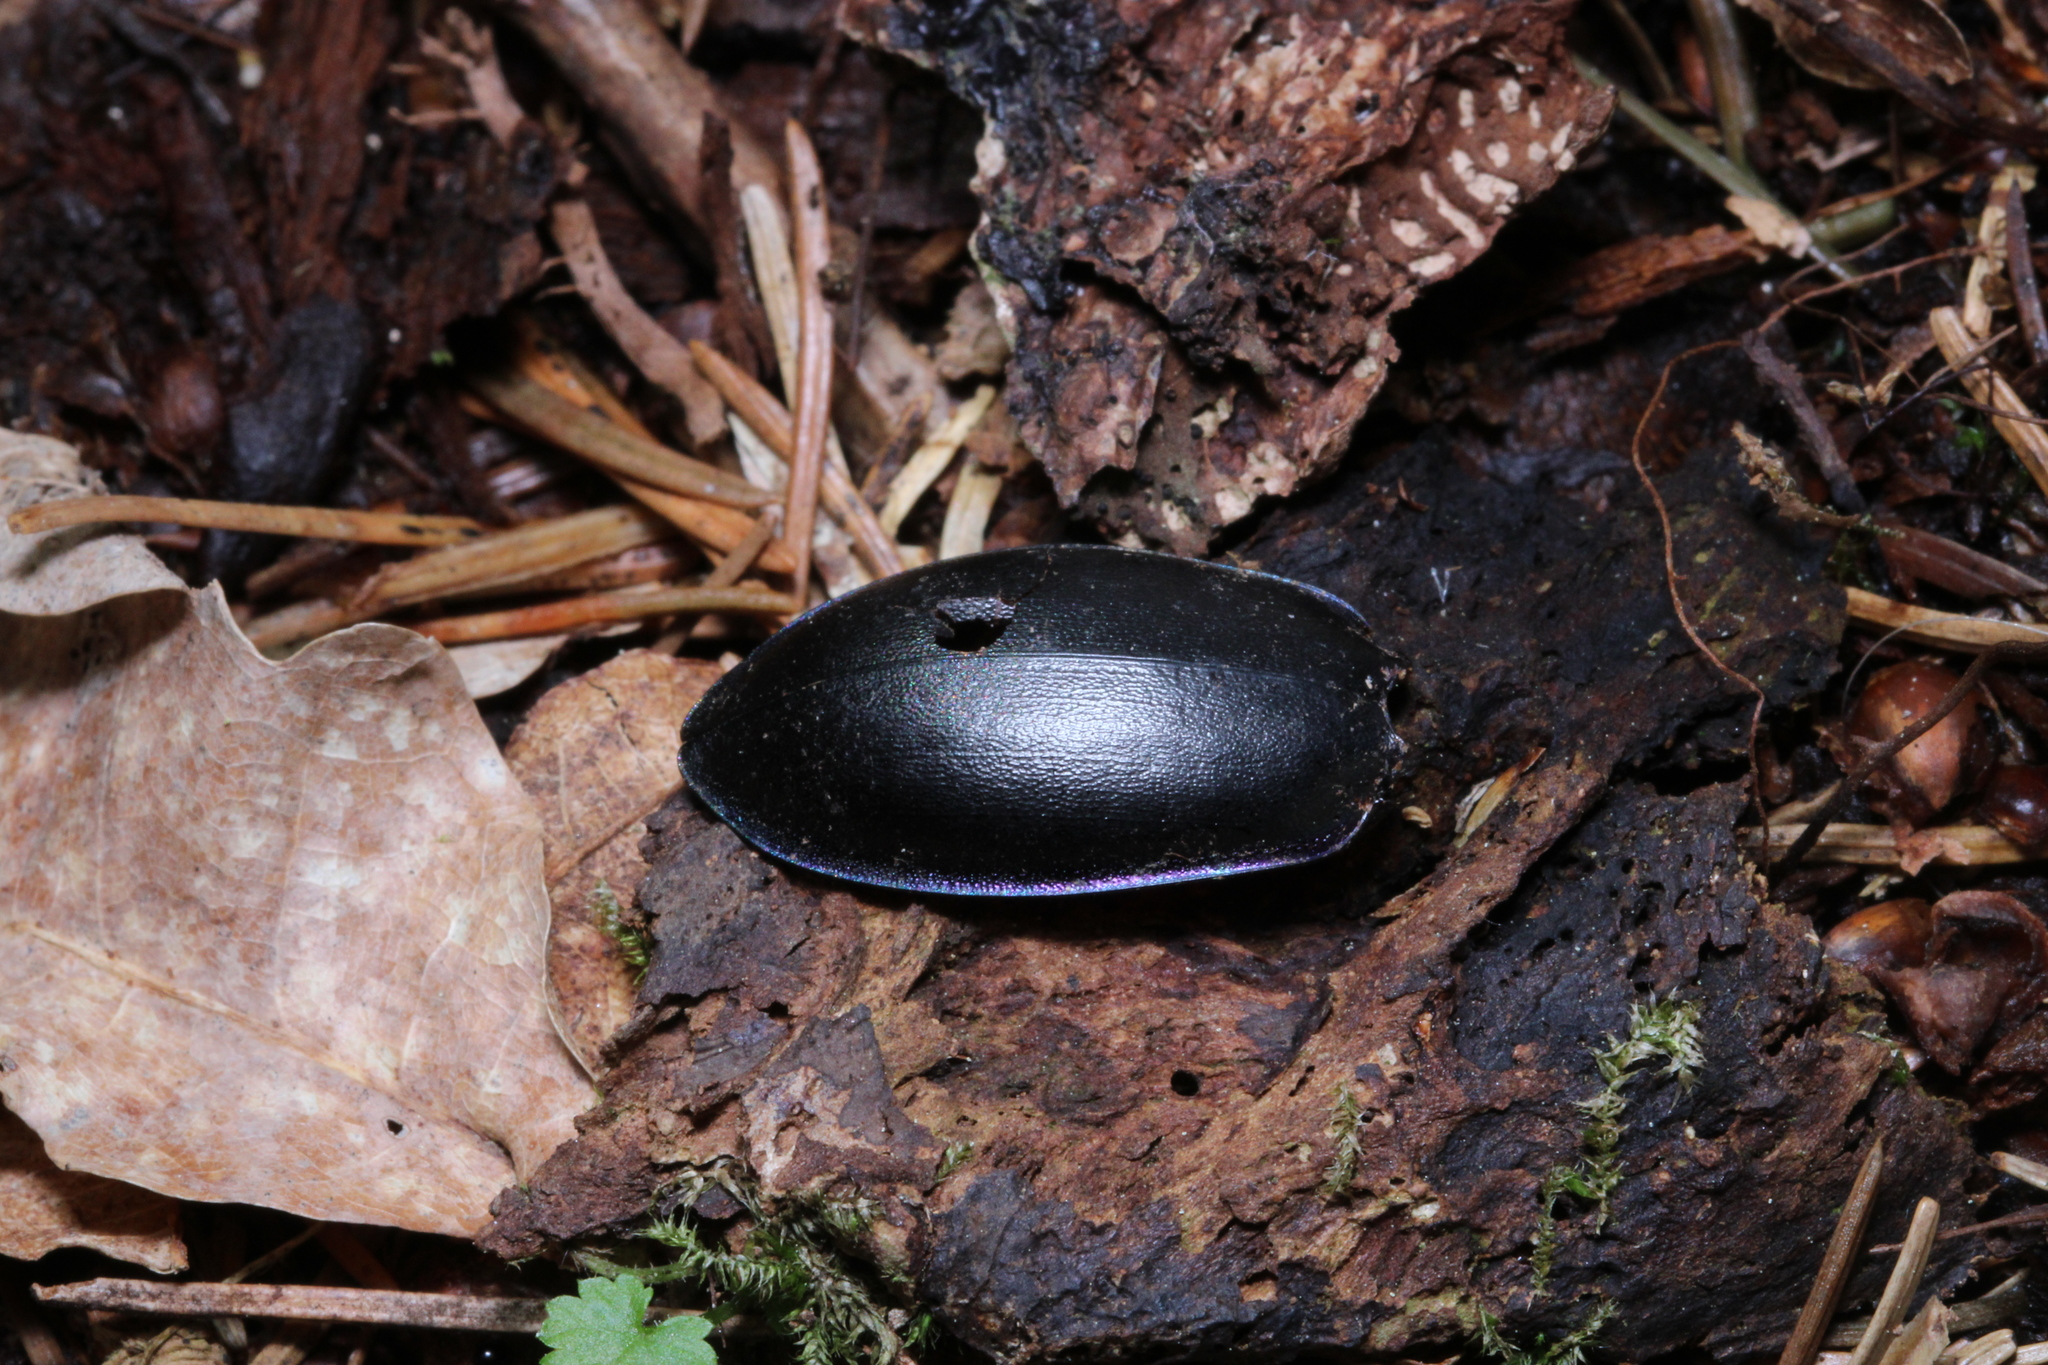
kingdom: Animalia
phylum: Arthropoda
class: Insecta
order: Coleoptera
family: Carabidae
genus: Carabus
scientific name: Carabus
